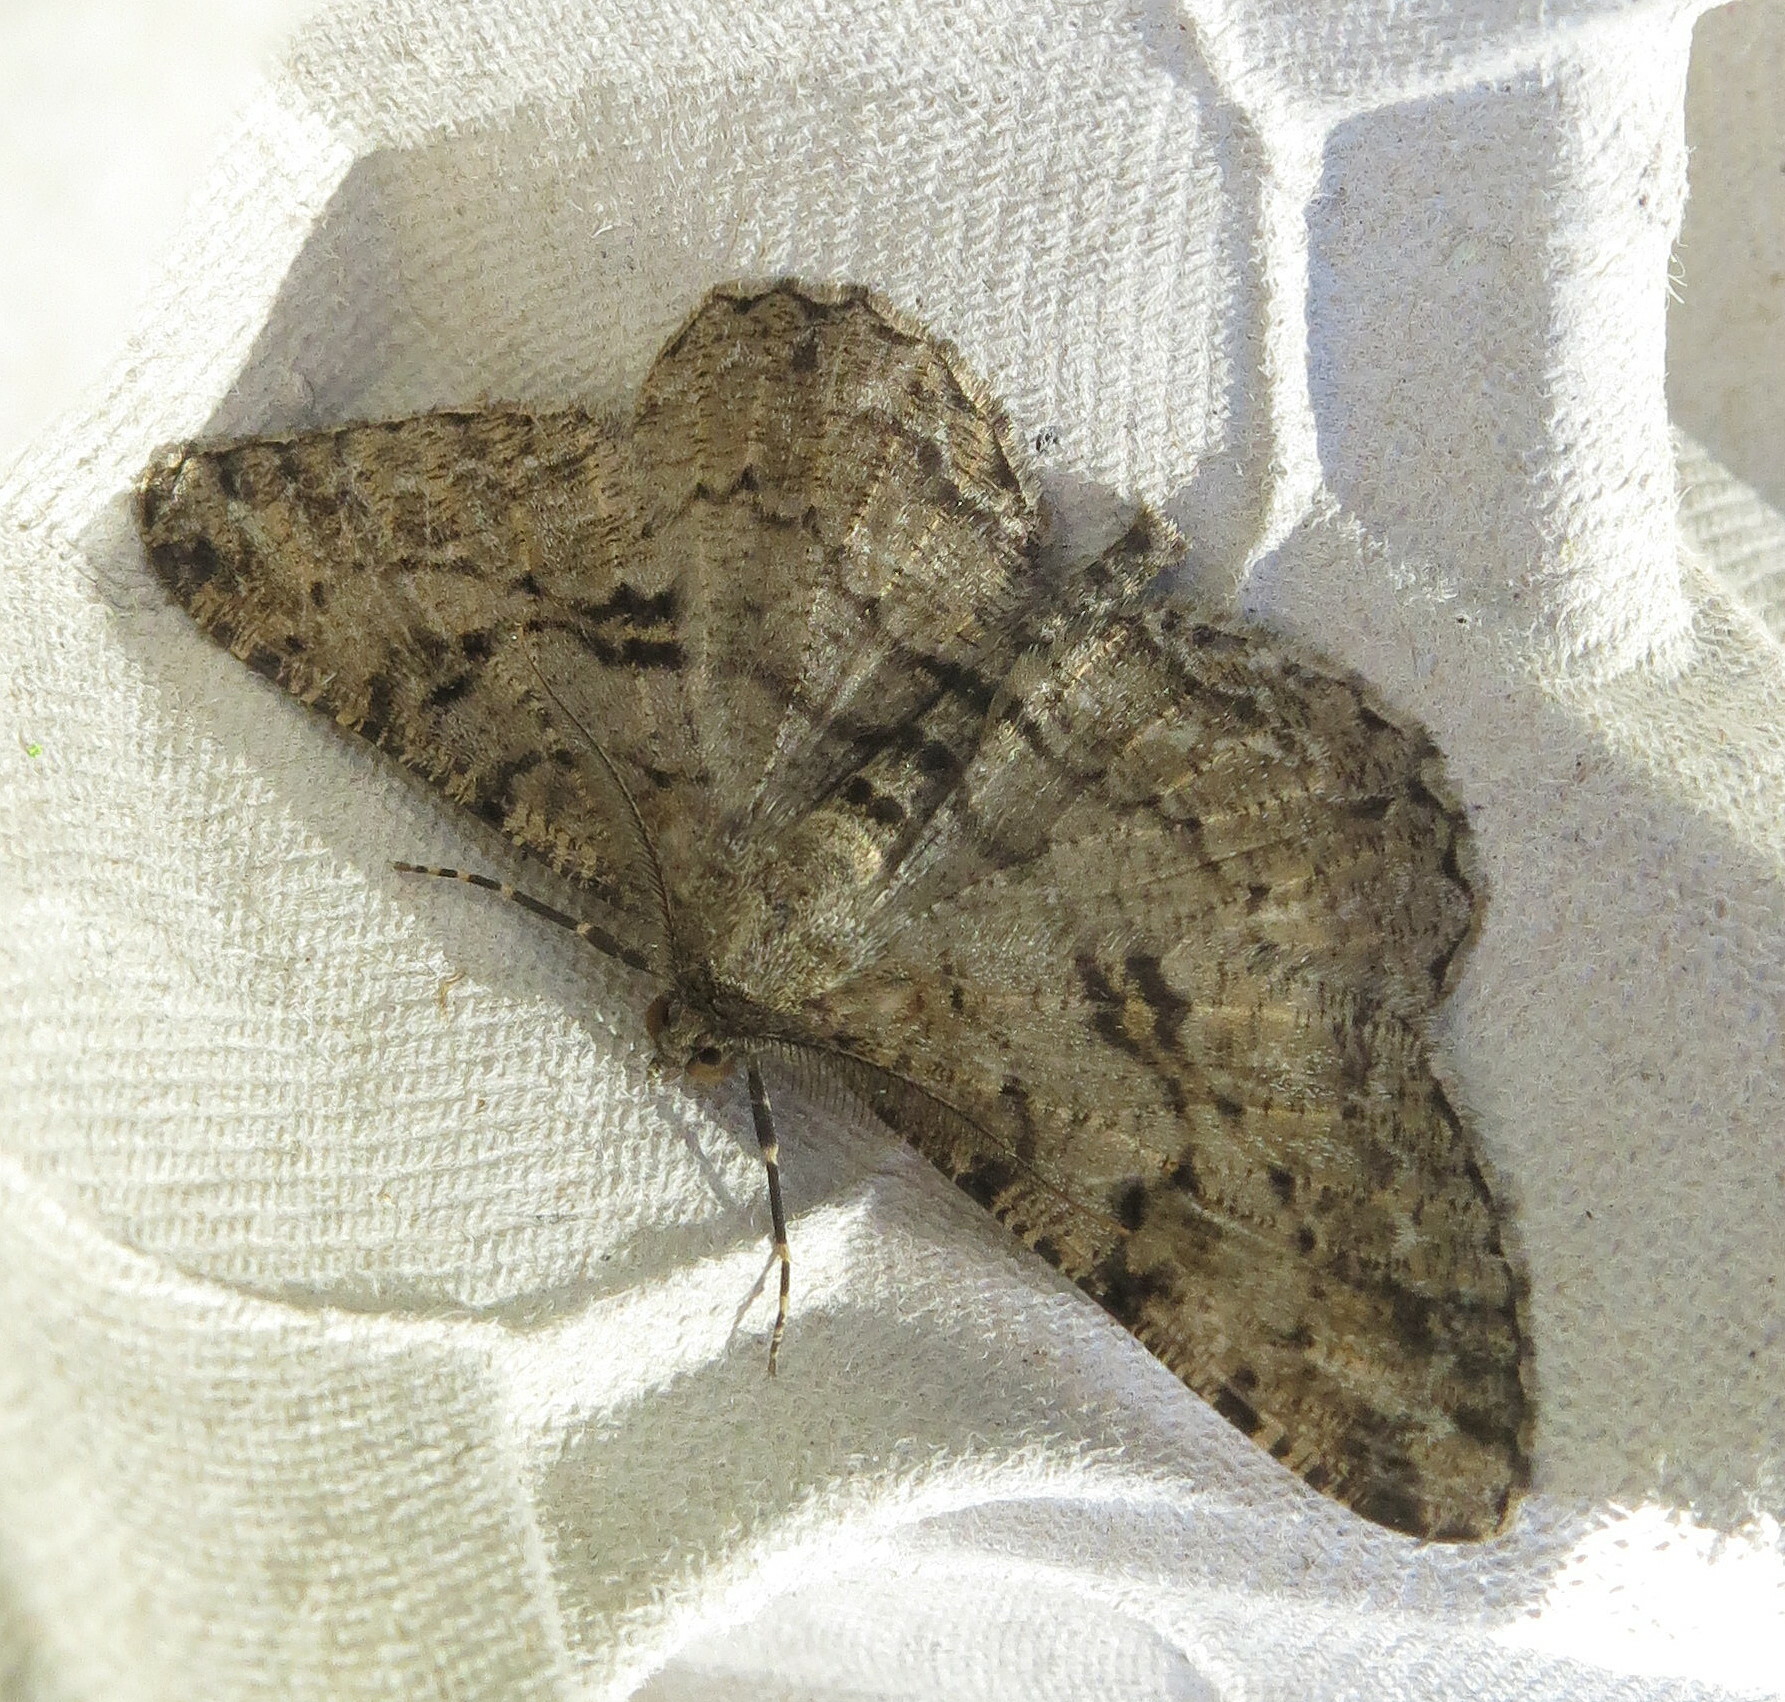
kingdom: Animalia
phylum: Arthropoda
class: Insecta
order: Lepidoptera
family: Geometridae
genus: Peribatodes
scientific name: Peribatodes rhomboidaria
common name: Willow beauty
